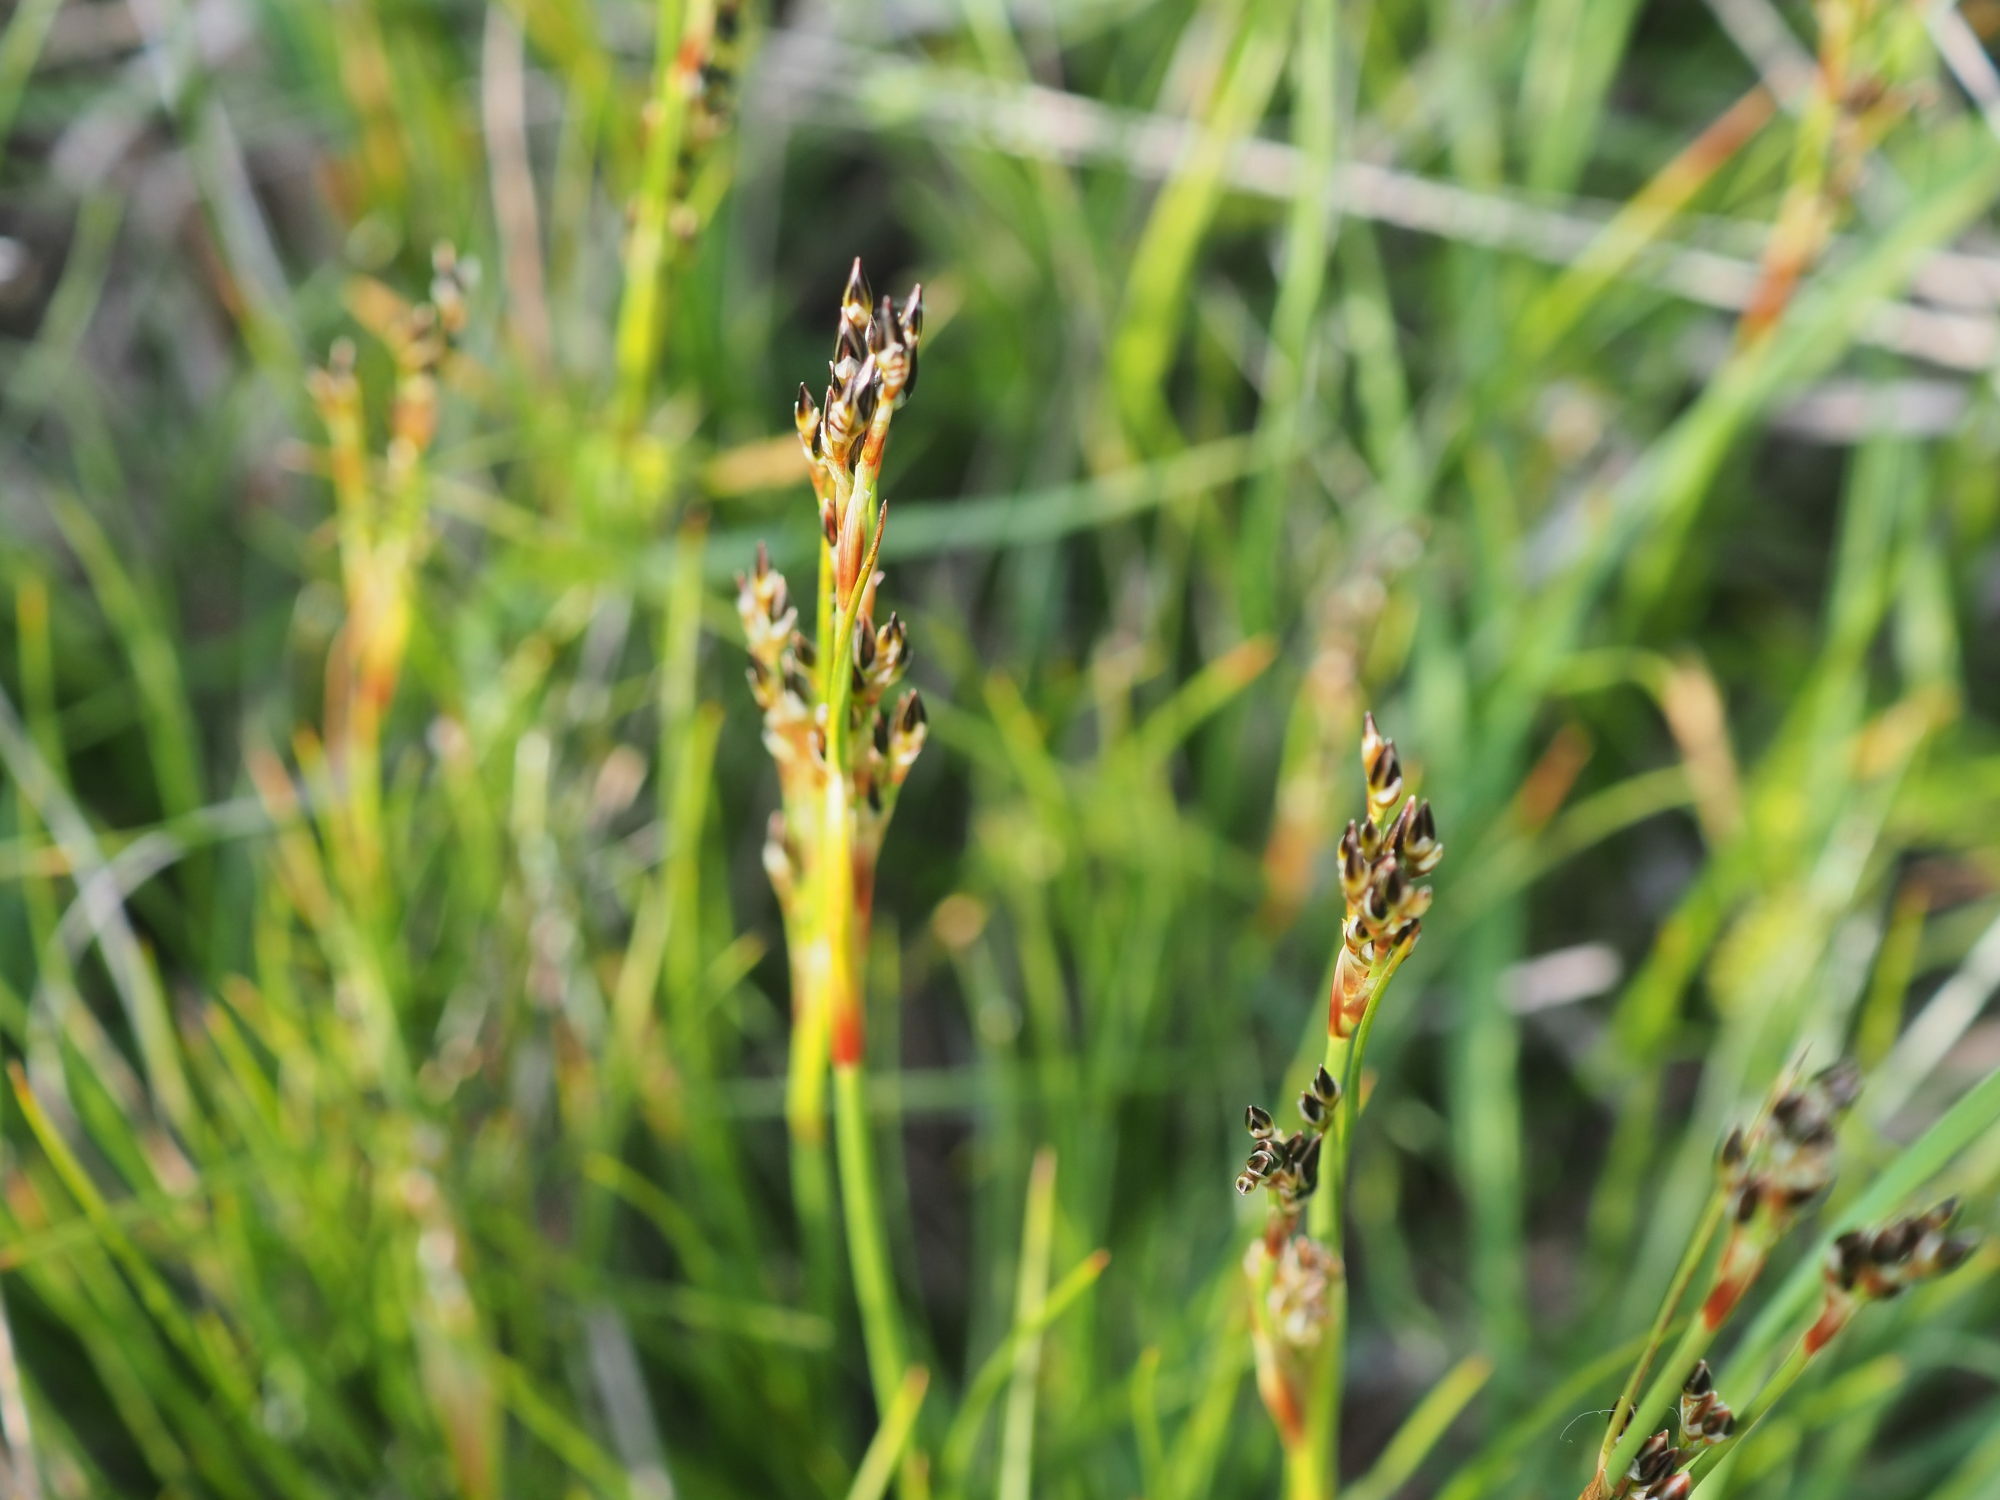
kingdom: Plantae
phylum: Tracheophyta
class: Liliopsida
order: Poales
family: Juncaceae
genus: Juncus
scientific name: Juncus squarrosus
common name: Heath rush
